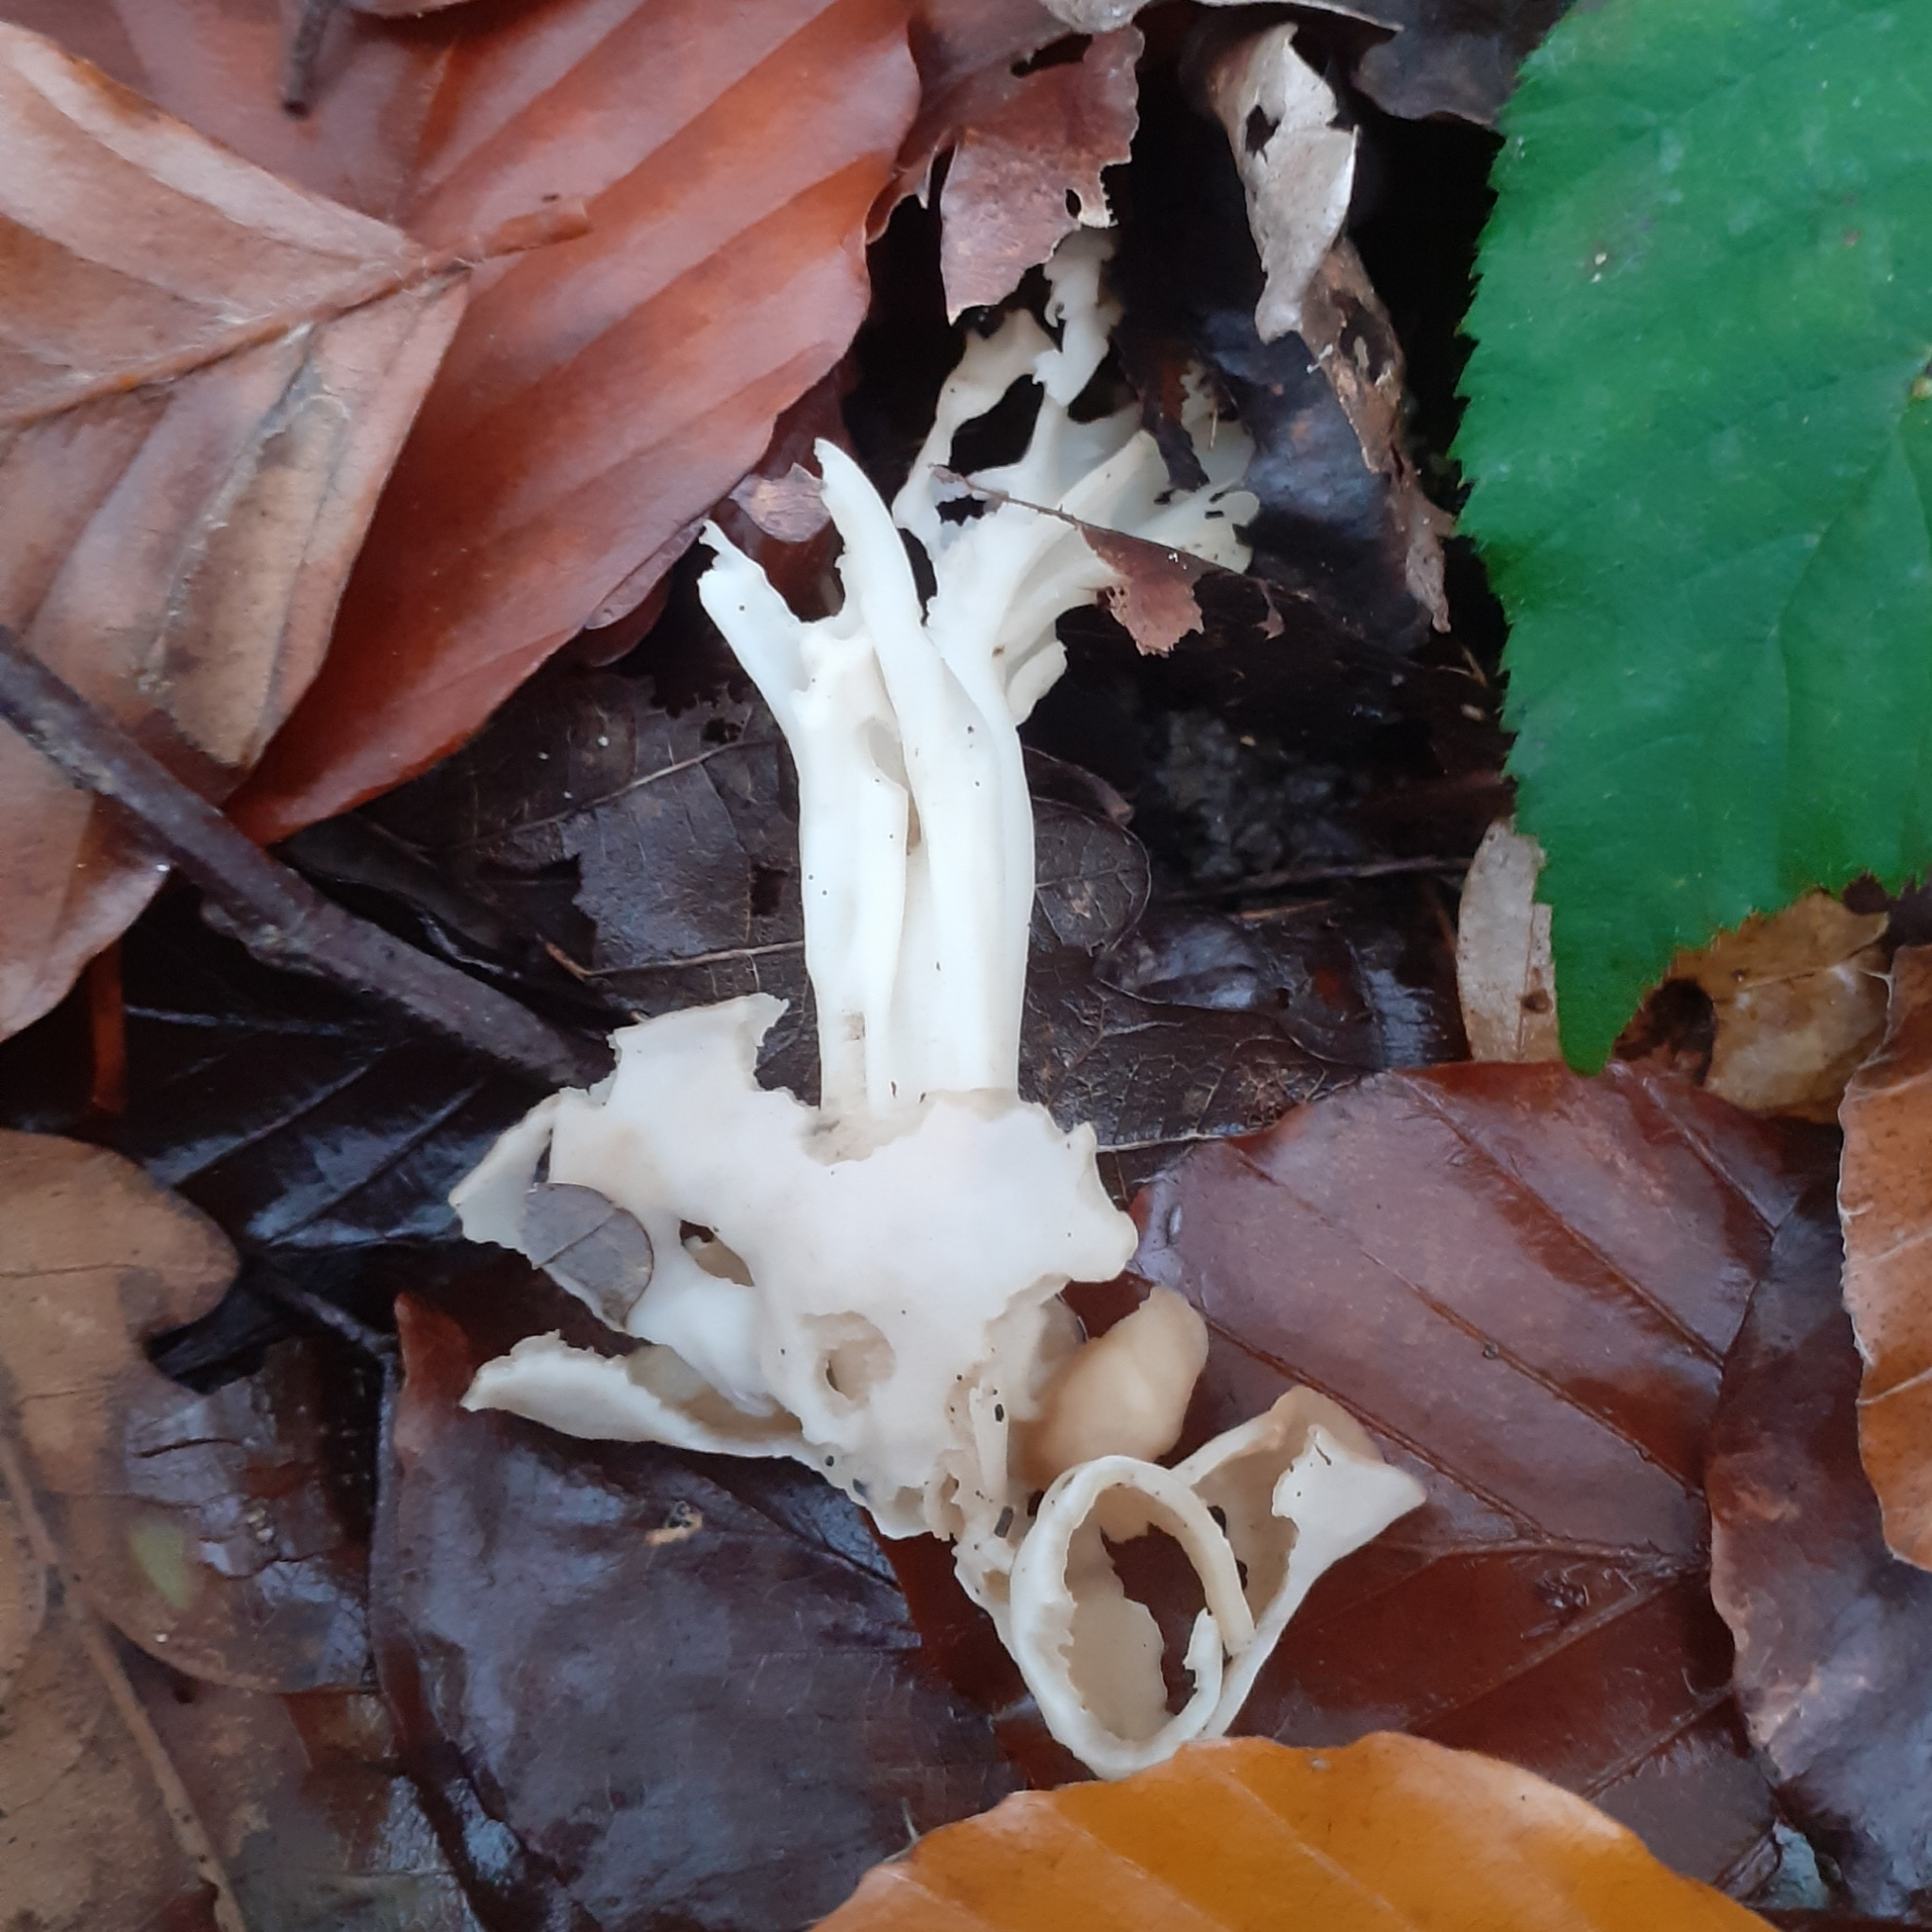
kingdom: Fungi
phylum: Ascomycota
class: Pezizomycetes
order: Pezizales
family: Helvellaceae
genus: Helvella
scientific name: Helvella crispa
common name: White saddle
